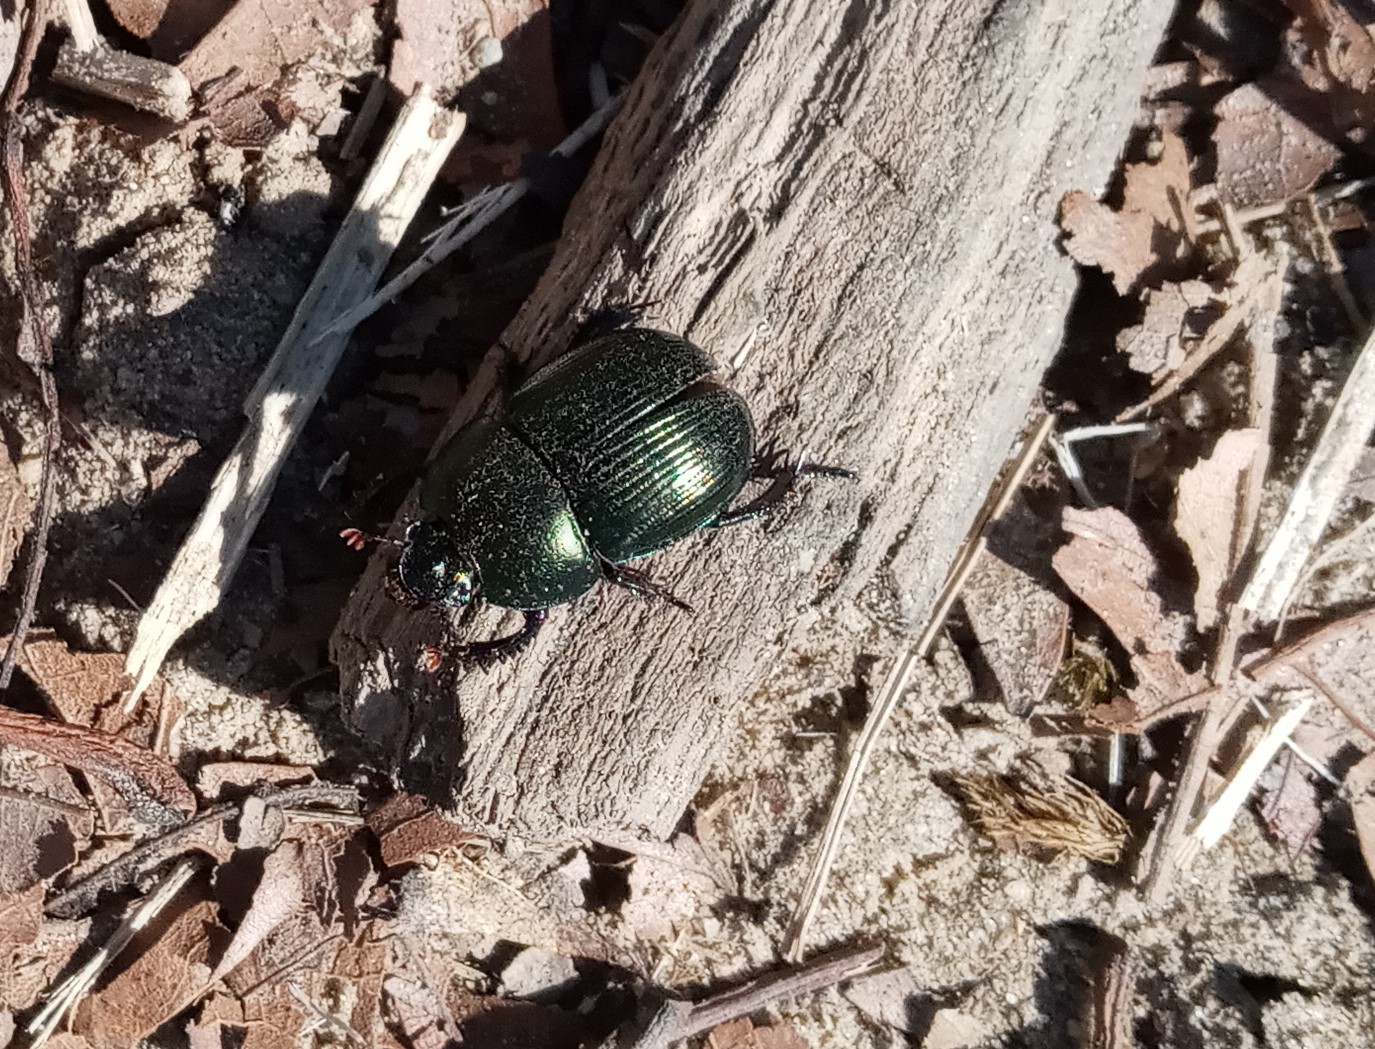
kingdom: Animalia
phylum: Arthropoda
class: Insecta
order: Coleoptera
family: Geotrupidae
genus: Geotrupes
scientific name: Geotrupes splendidus
